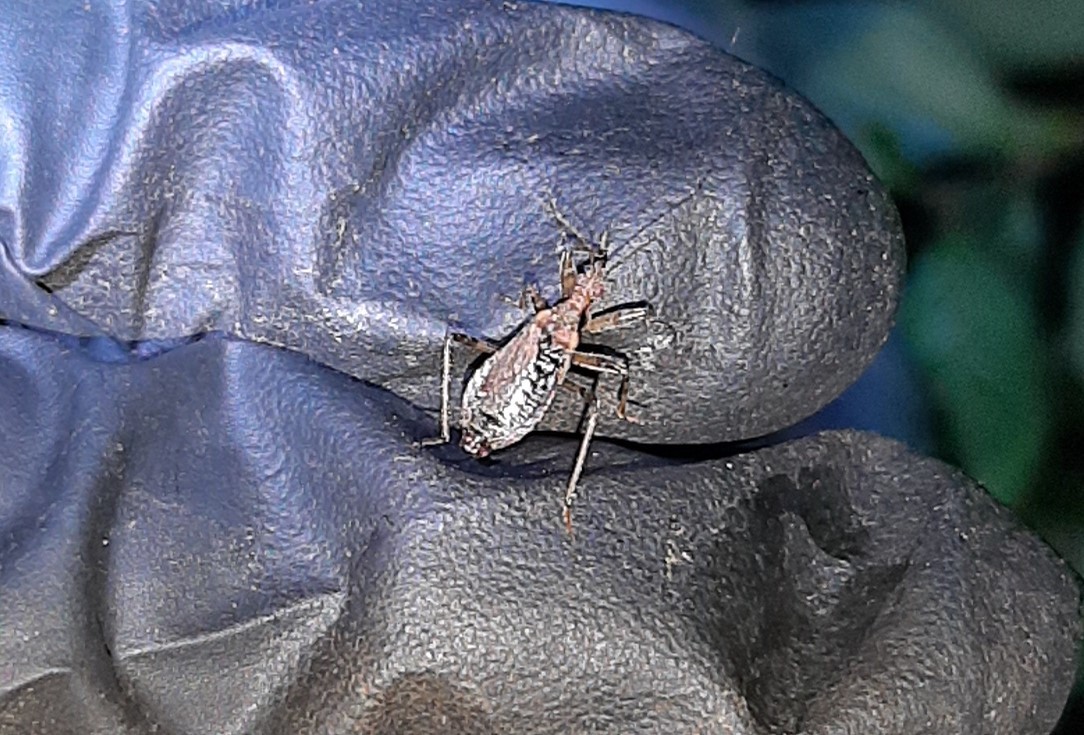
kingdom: Animalia
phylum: Arthropoda
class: Insecta
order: Hemiptera
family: Nabidae
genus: Himacerus
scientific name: Himacerus mirmicoides
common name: Ant damsel bug
